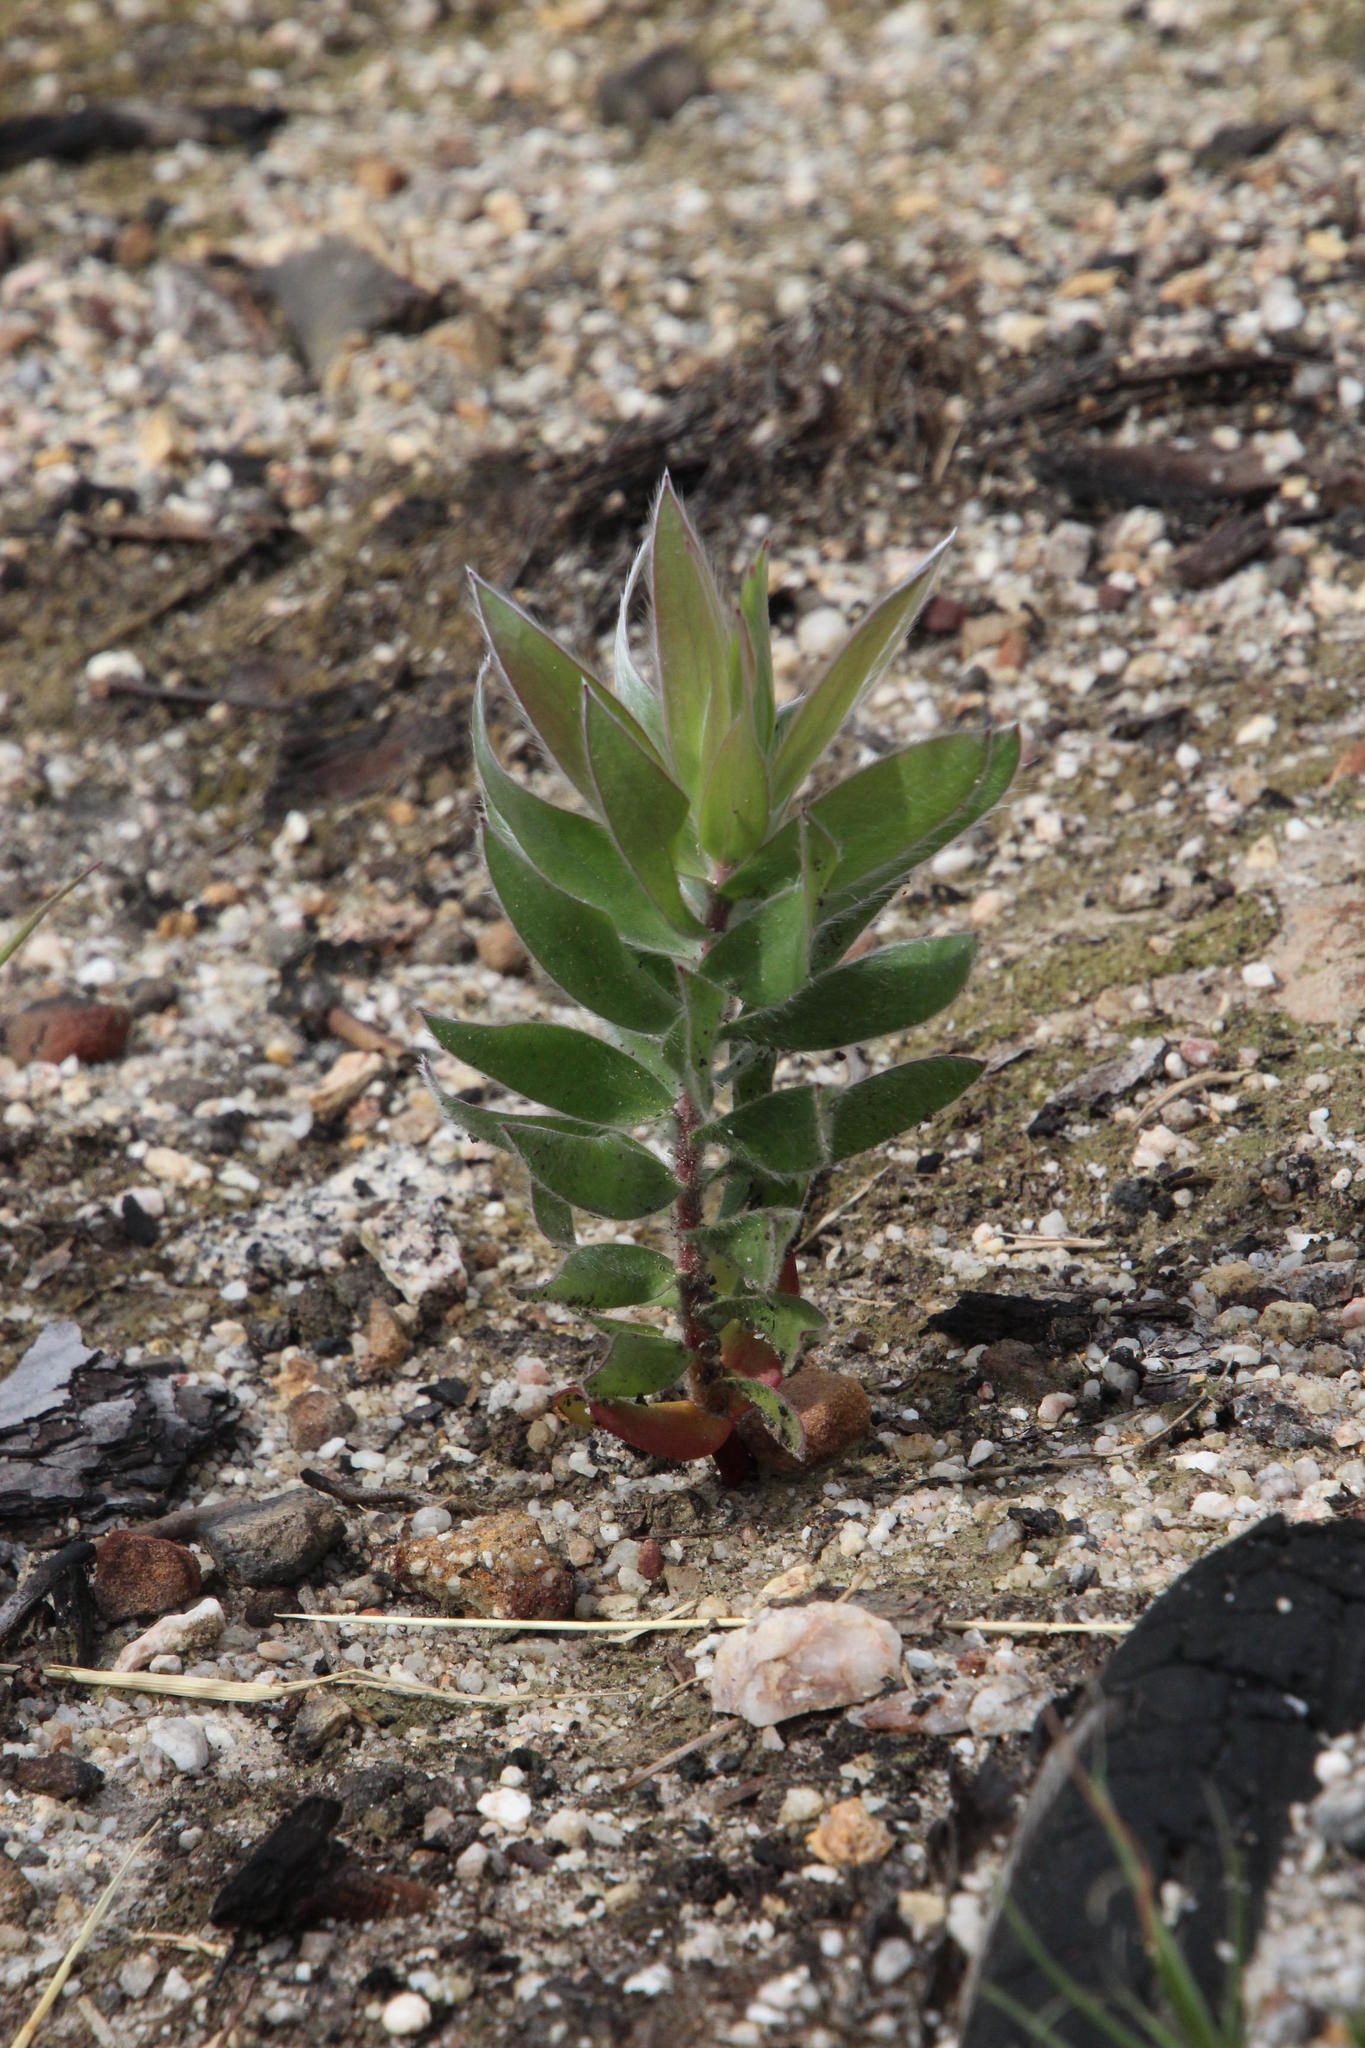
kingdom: Plantae
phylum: Tracheophyta
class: Magnoliopsida
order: Proteales
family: Proteaceae
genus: Leucadendron
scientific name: Leucadendron argenteum
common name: Cape silver tree
